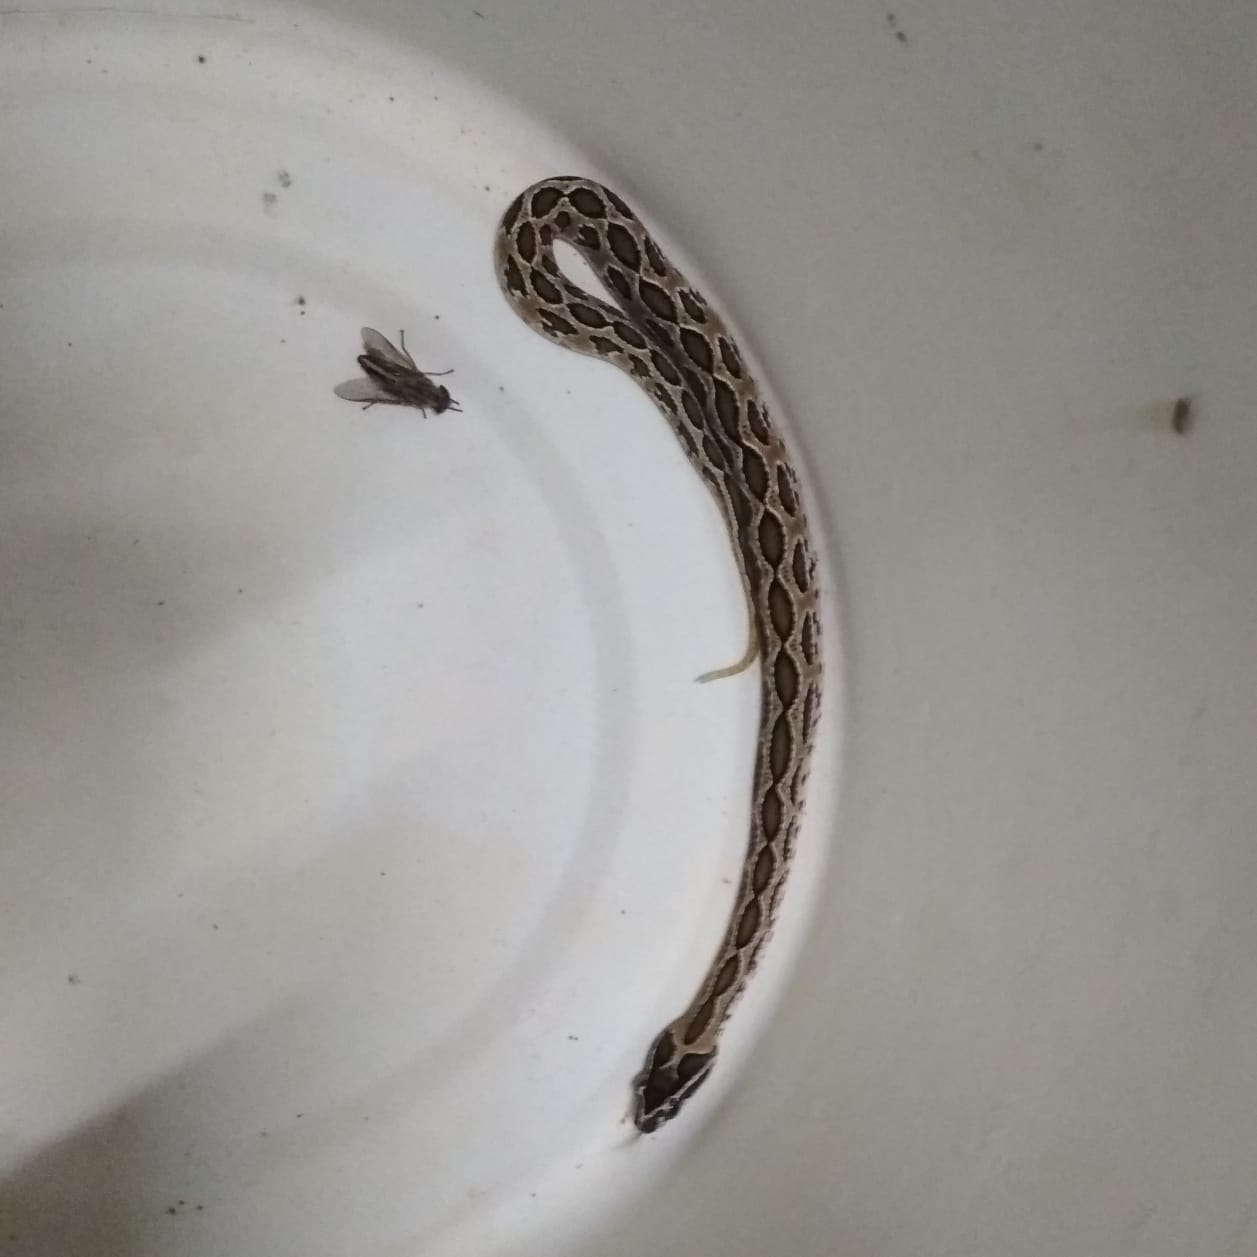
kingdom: Animalia
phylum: Chordata
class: Squamata
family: Viperidae
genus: Daboia
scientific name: Daboia russelii
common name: Western russel’s viper
